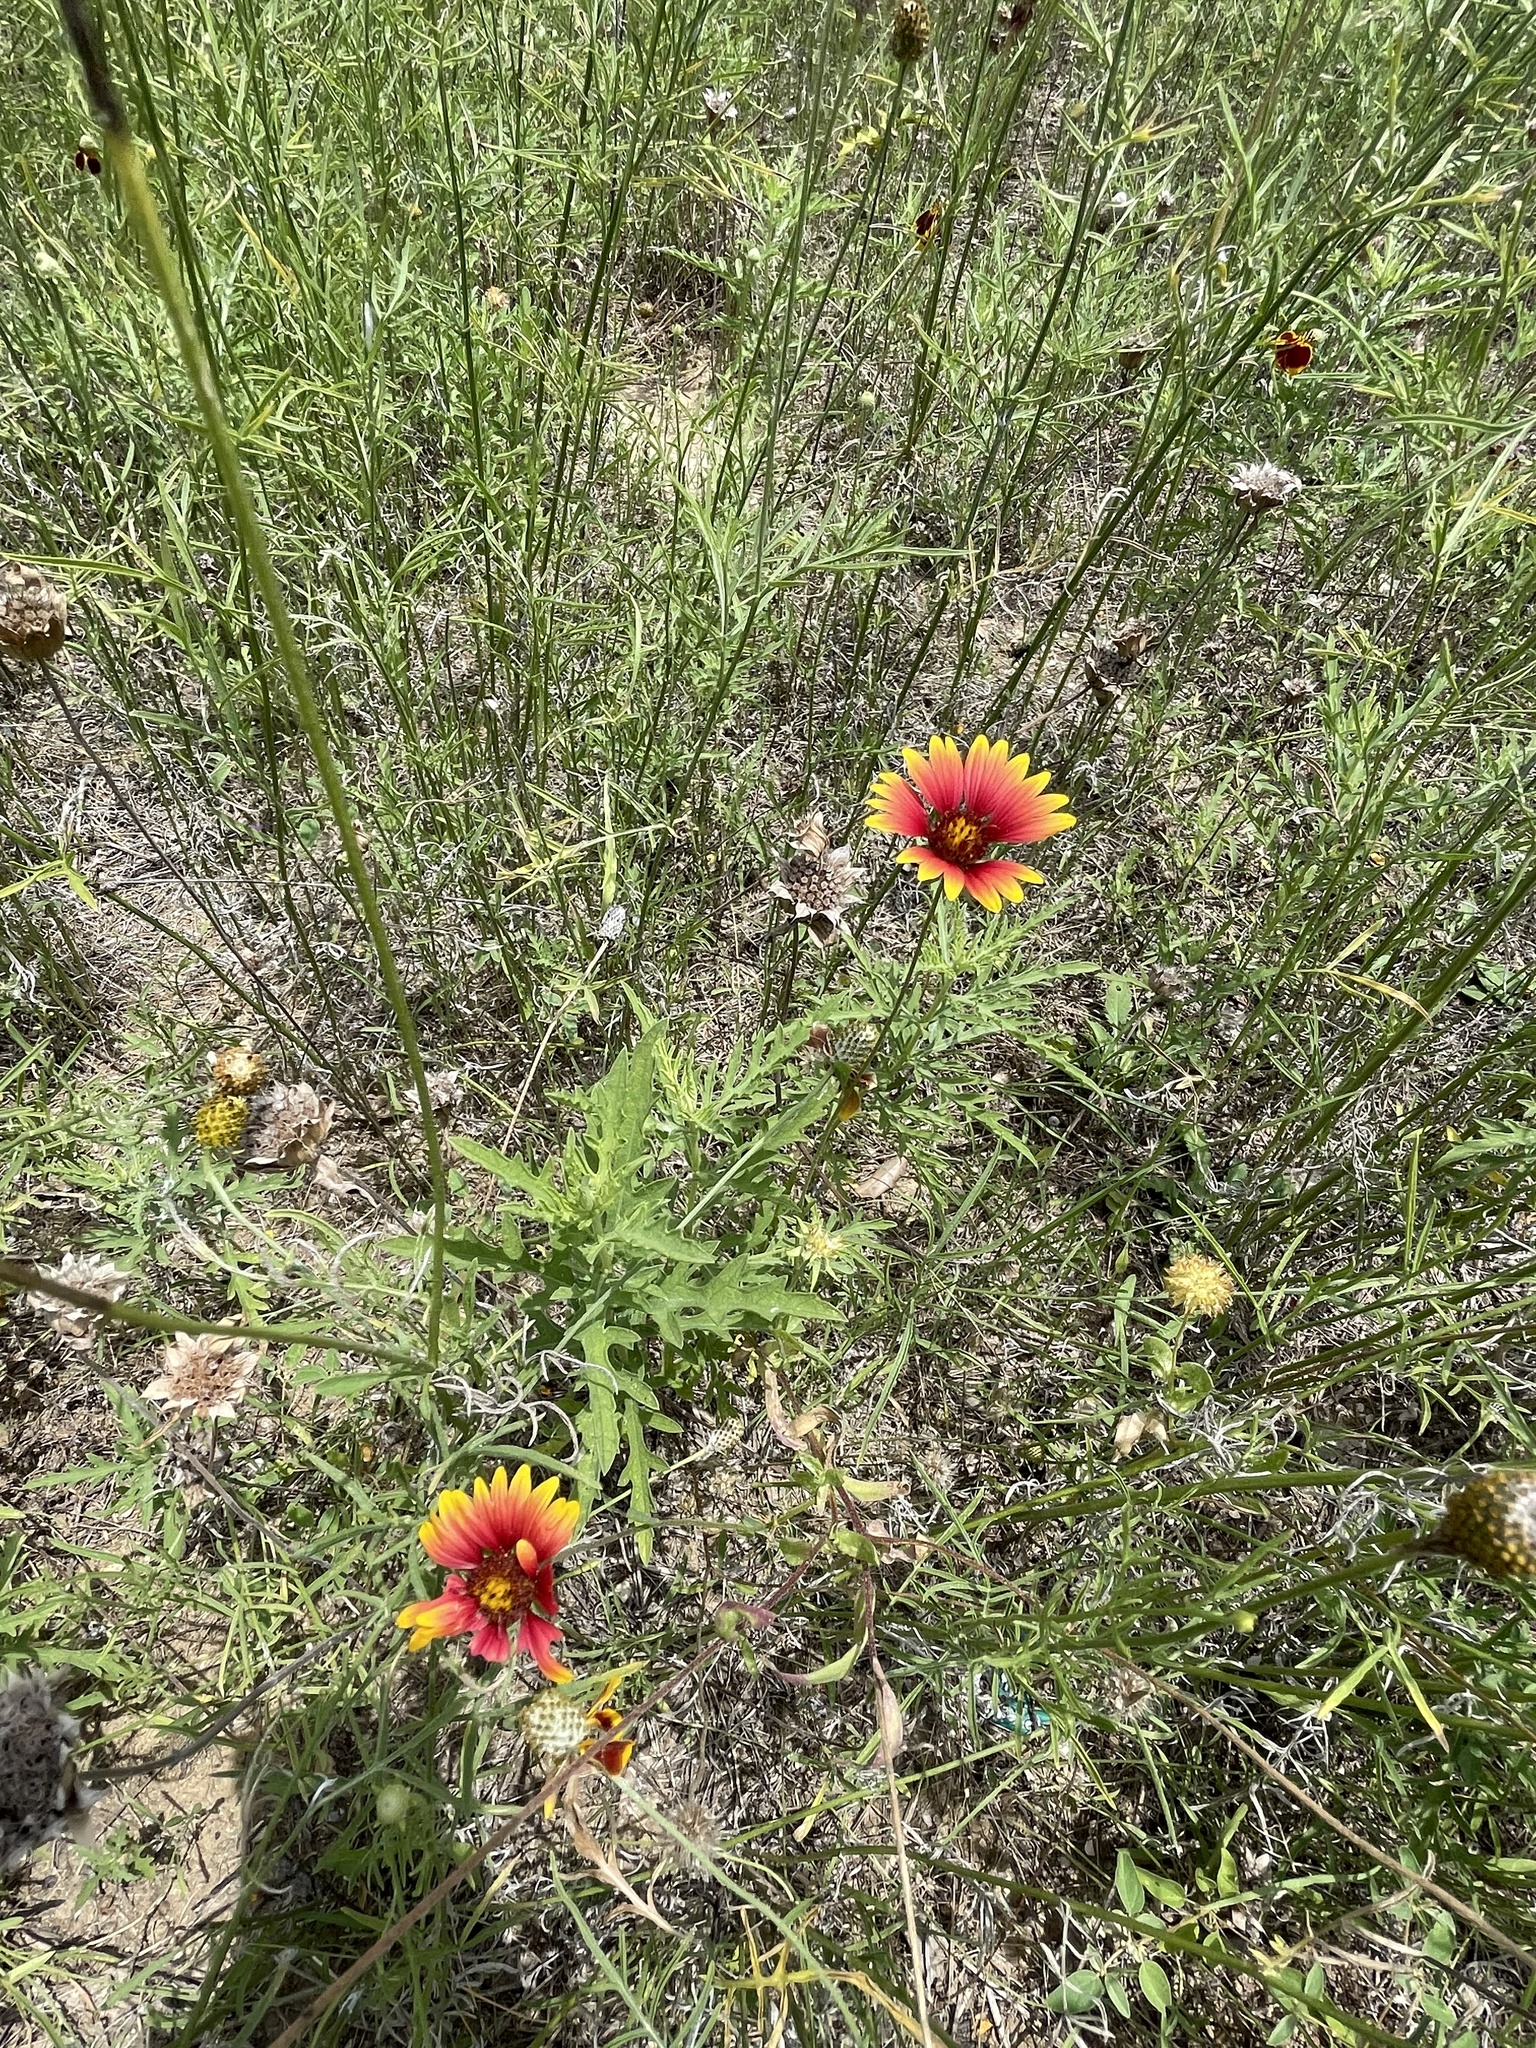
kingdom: Plantae
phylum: Tracheophyta
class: Magnoliopsida
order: Asterales
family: Asteraceae
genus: Gaillardia
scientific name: Gaillardia pulchella
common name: Firewheel
